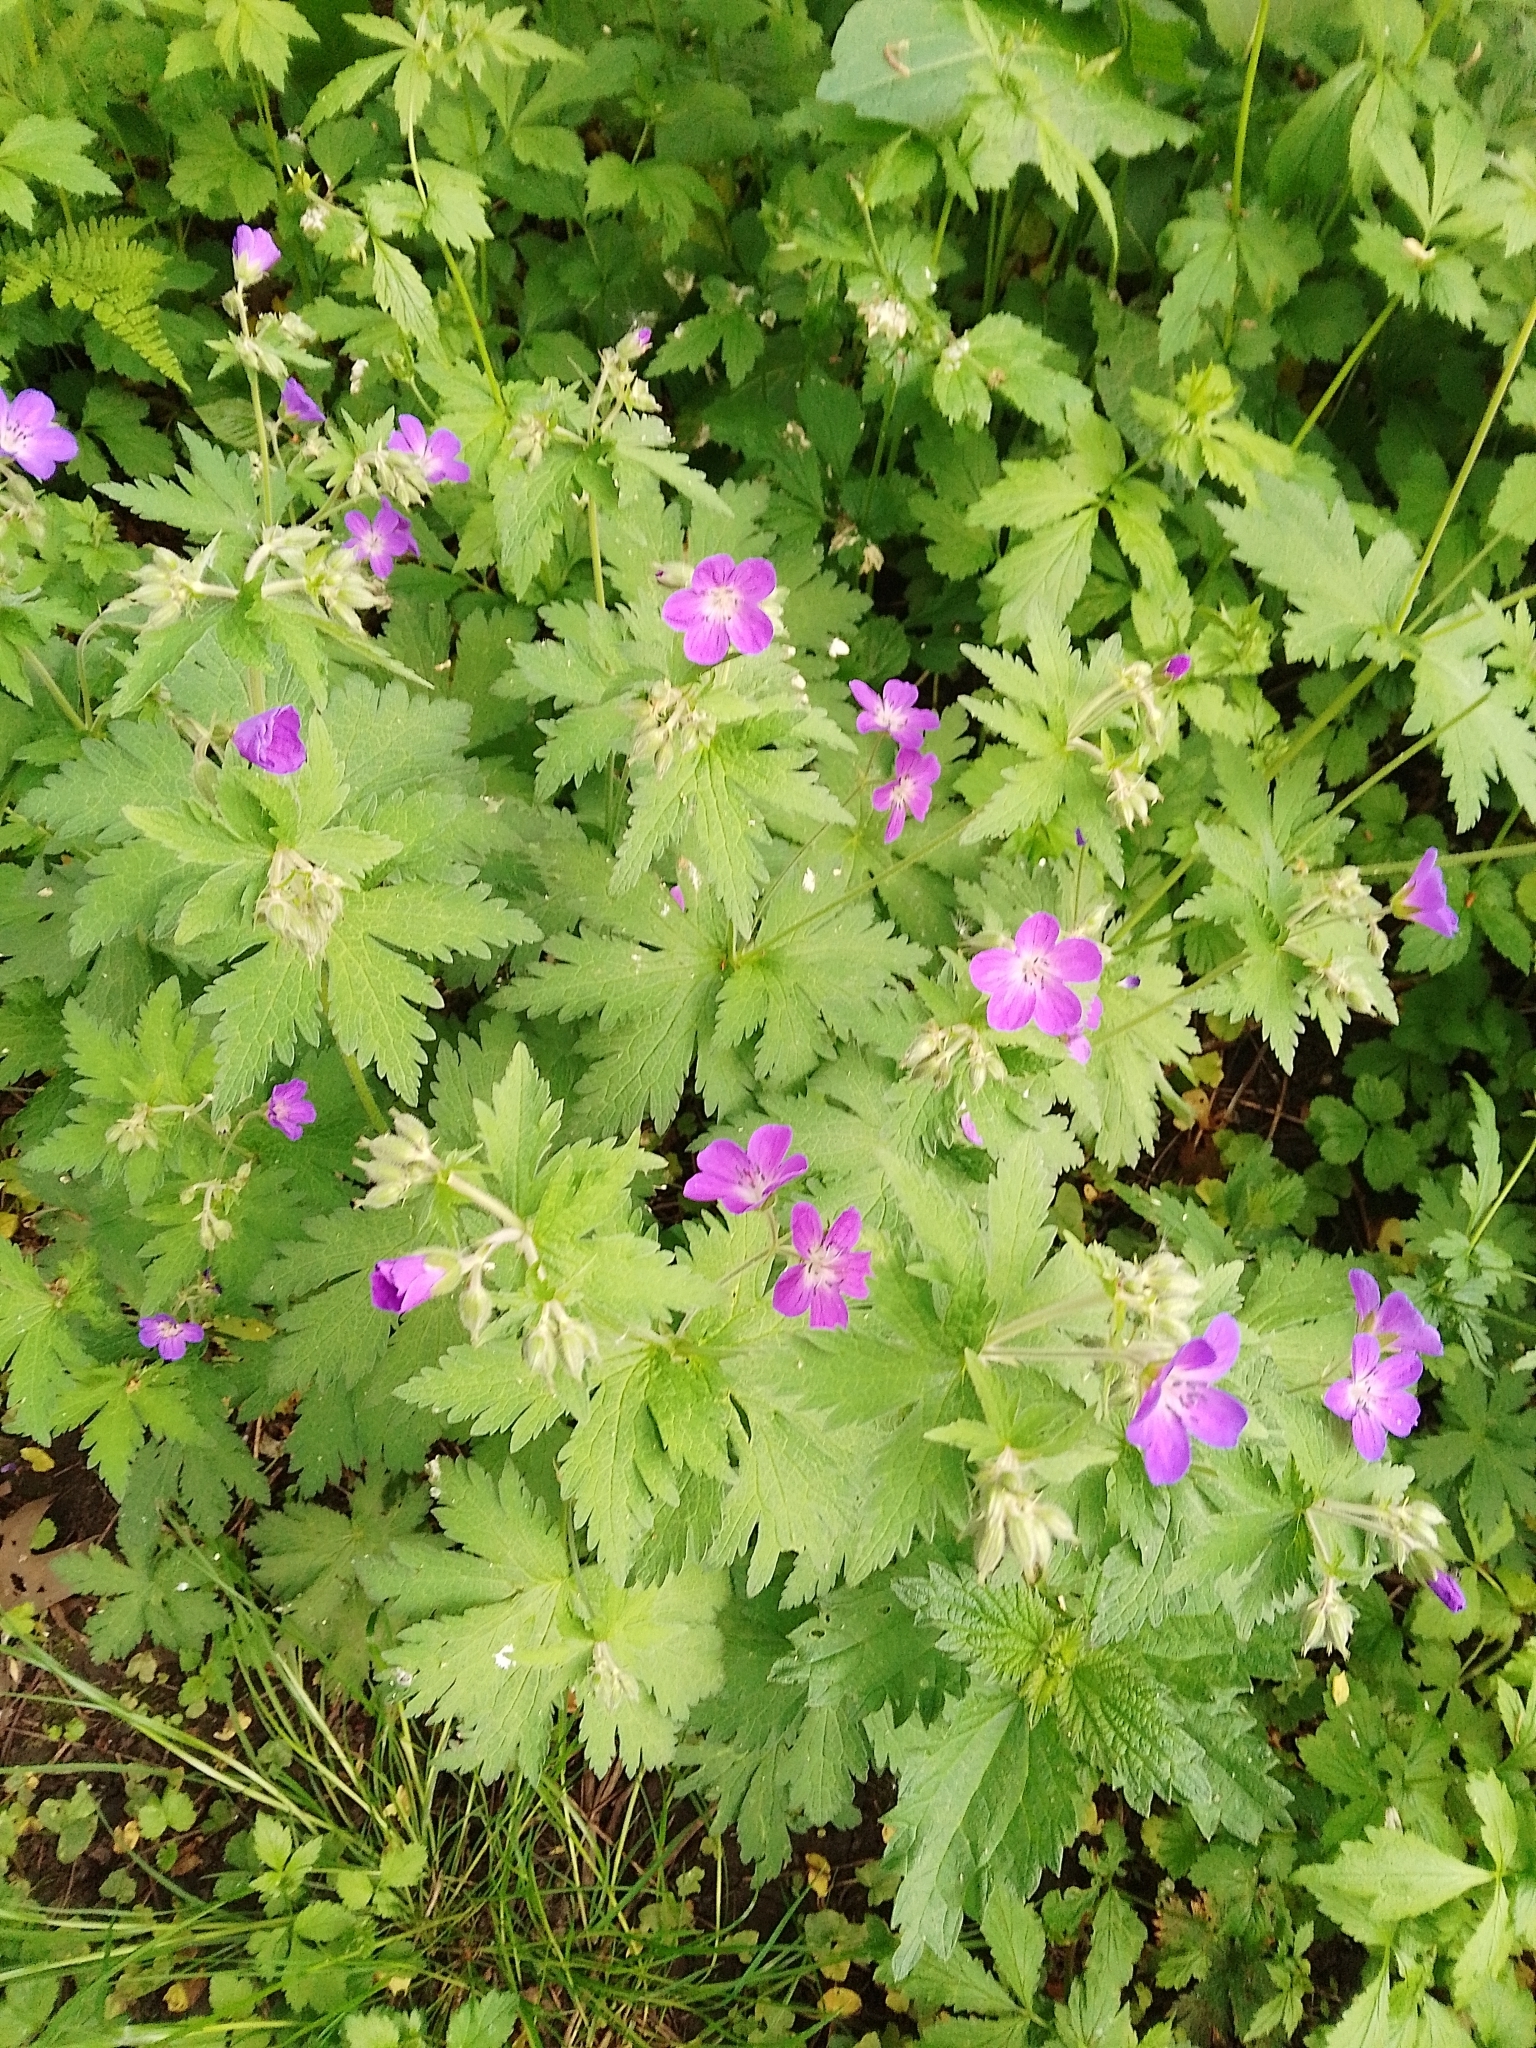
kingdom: Plantae
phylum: Tracheophyta
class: Magnoliopsida
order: Geraniales
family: Geraniaceae
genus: Geranium
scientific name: Geranium sylvaticum
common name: Wood crane's-bill
